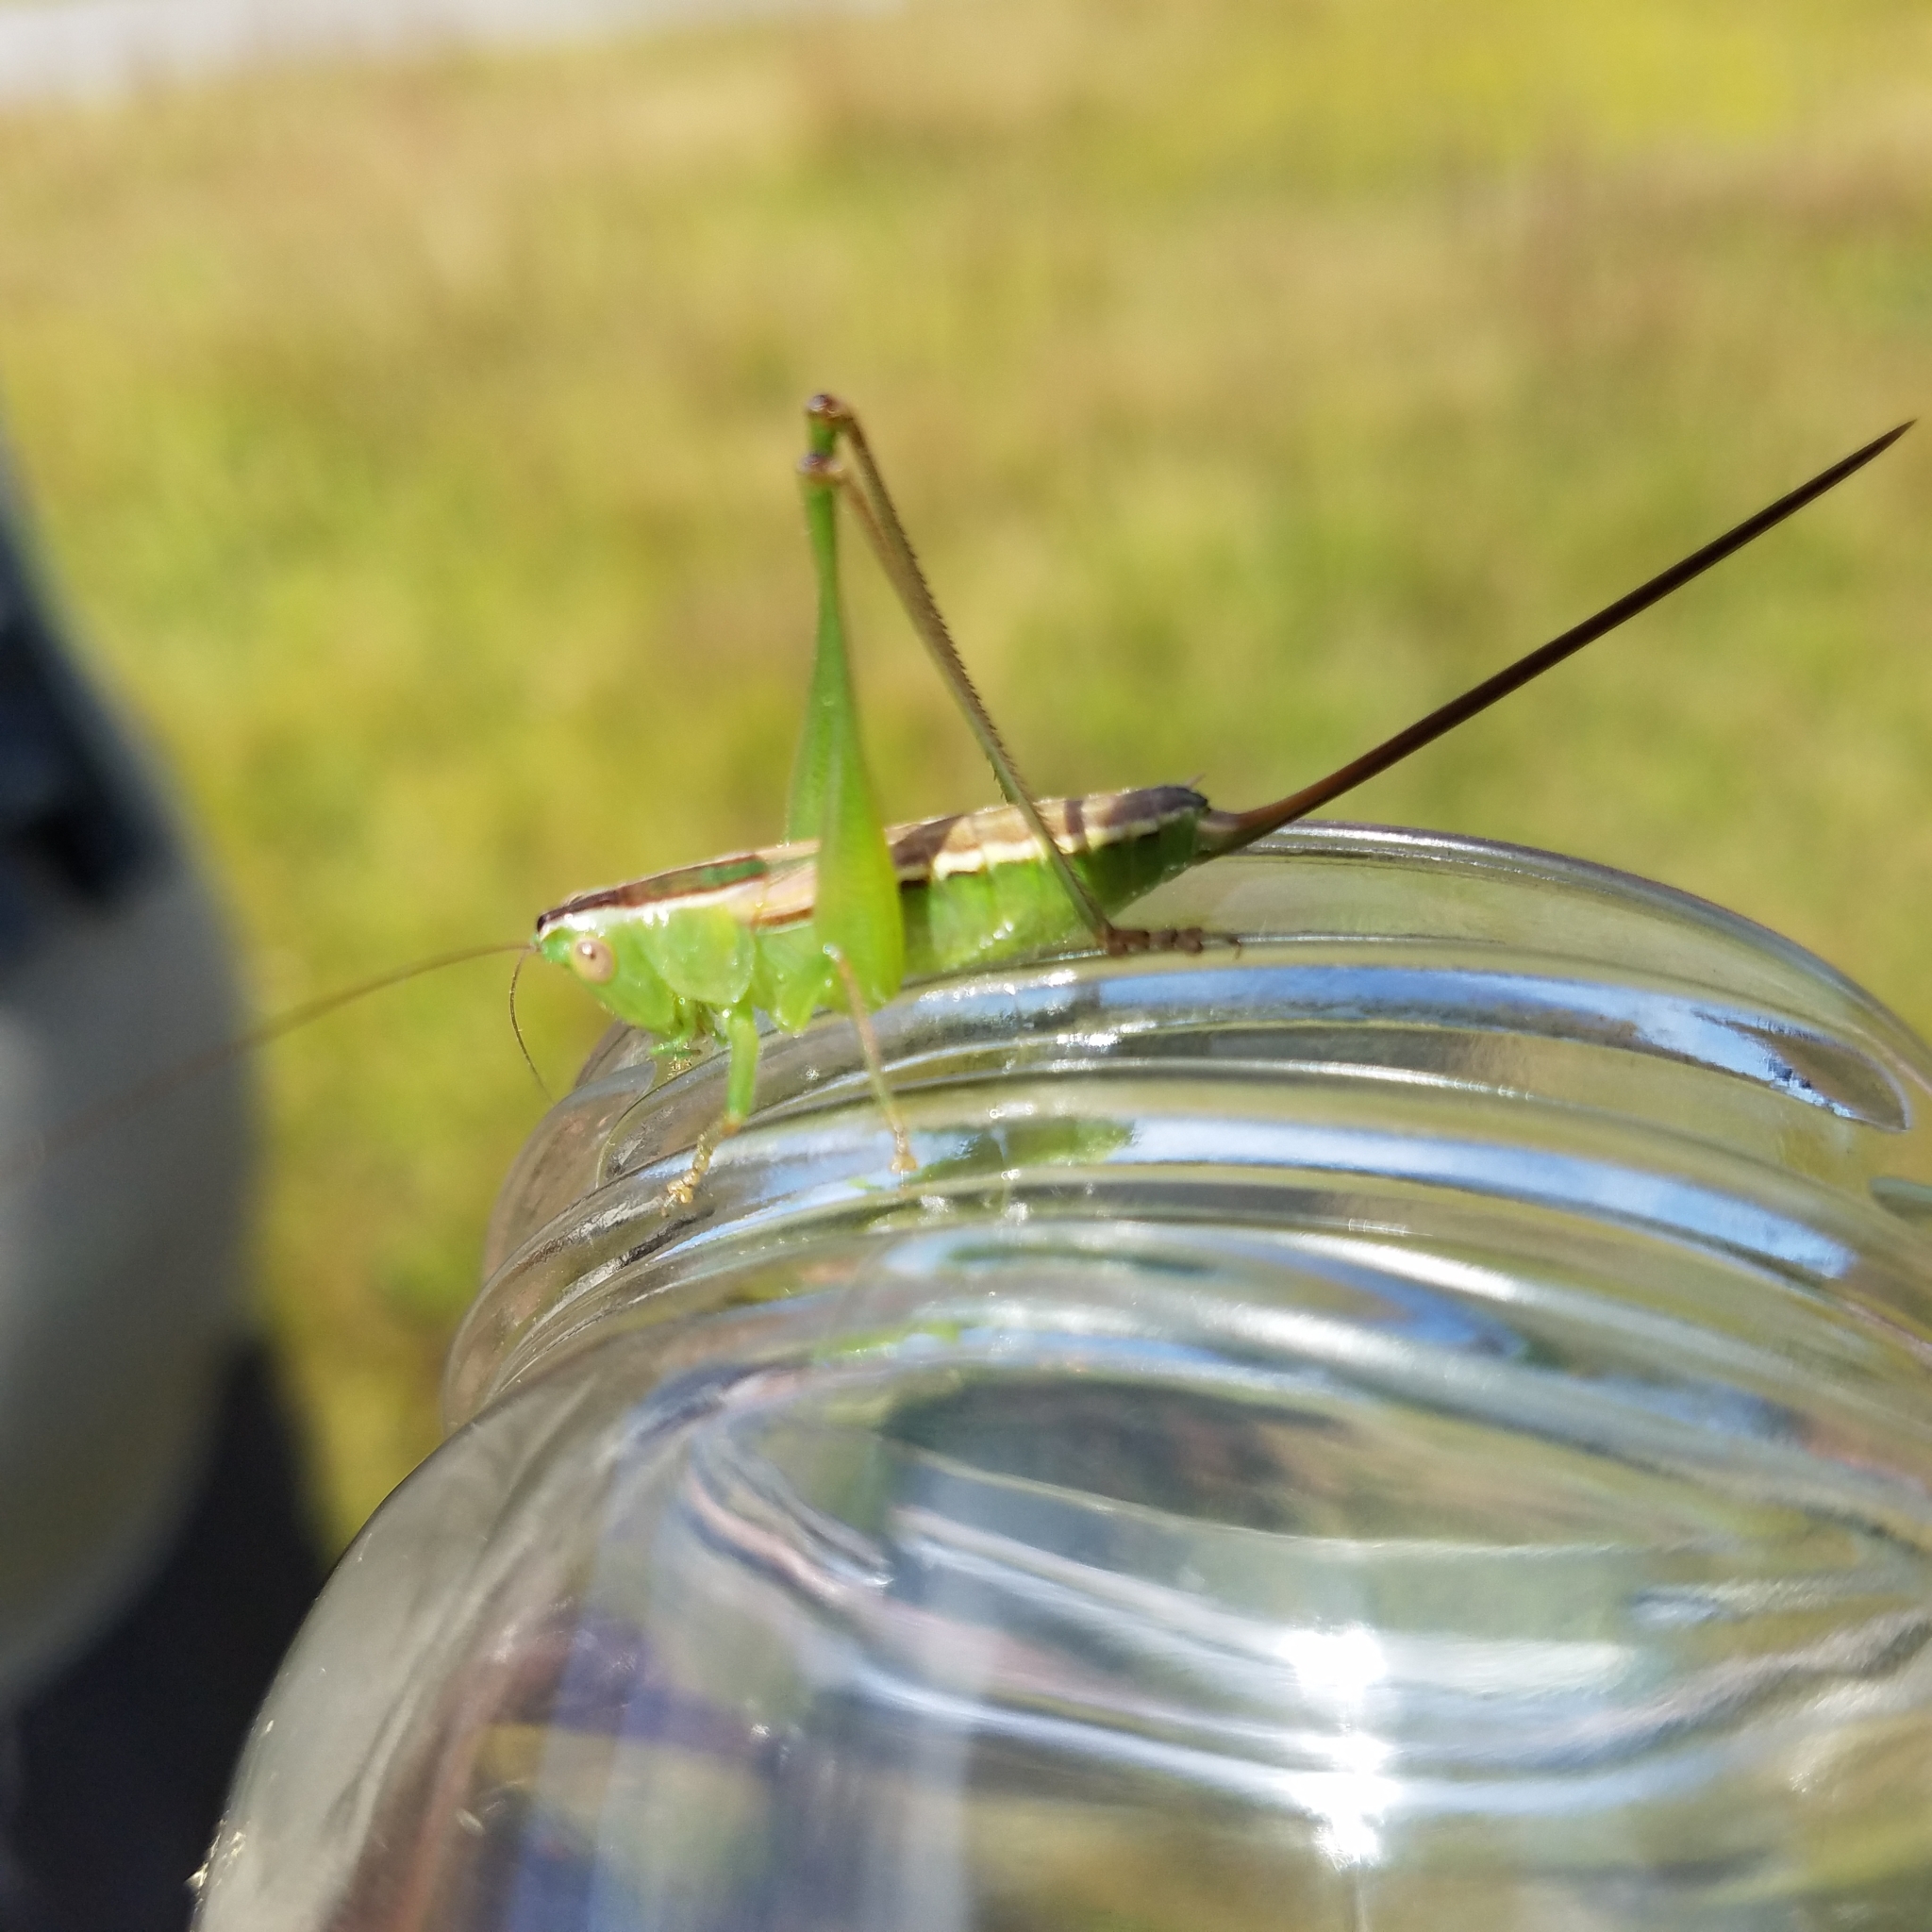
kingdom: Animalia
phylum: Arthropoda
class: Insecta
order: Orthoptera
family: Tettigoniidae
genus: Conocephalus
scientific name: Conocephalus strictus
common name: Straight-lanced katydid
